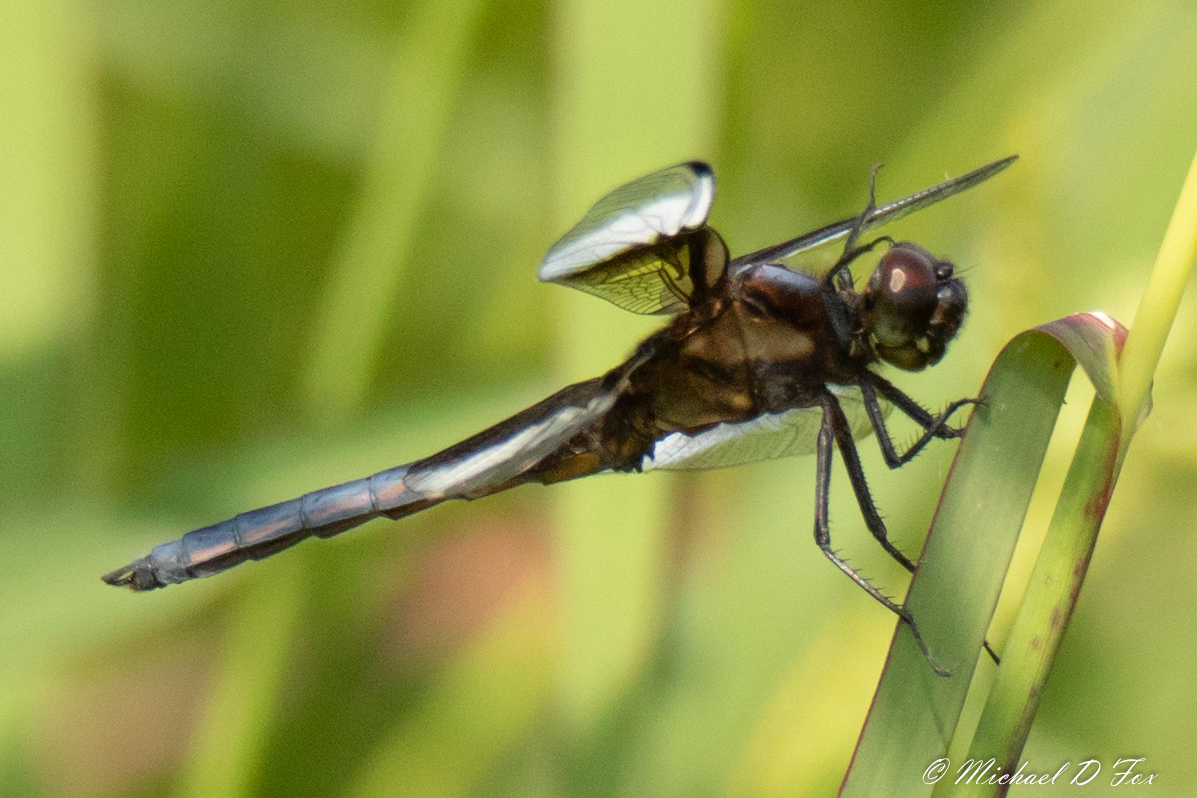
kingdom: Animalia
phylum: Arthropoda
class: Insecta
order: Odonata
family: Libellulidae
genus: Libellula
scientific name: Libellula luctuosa
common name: Widow skimmer
